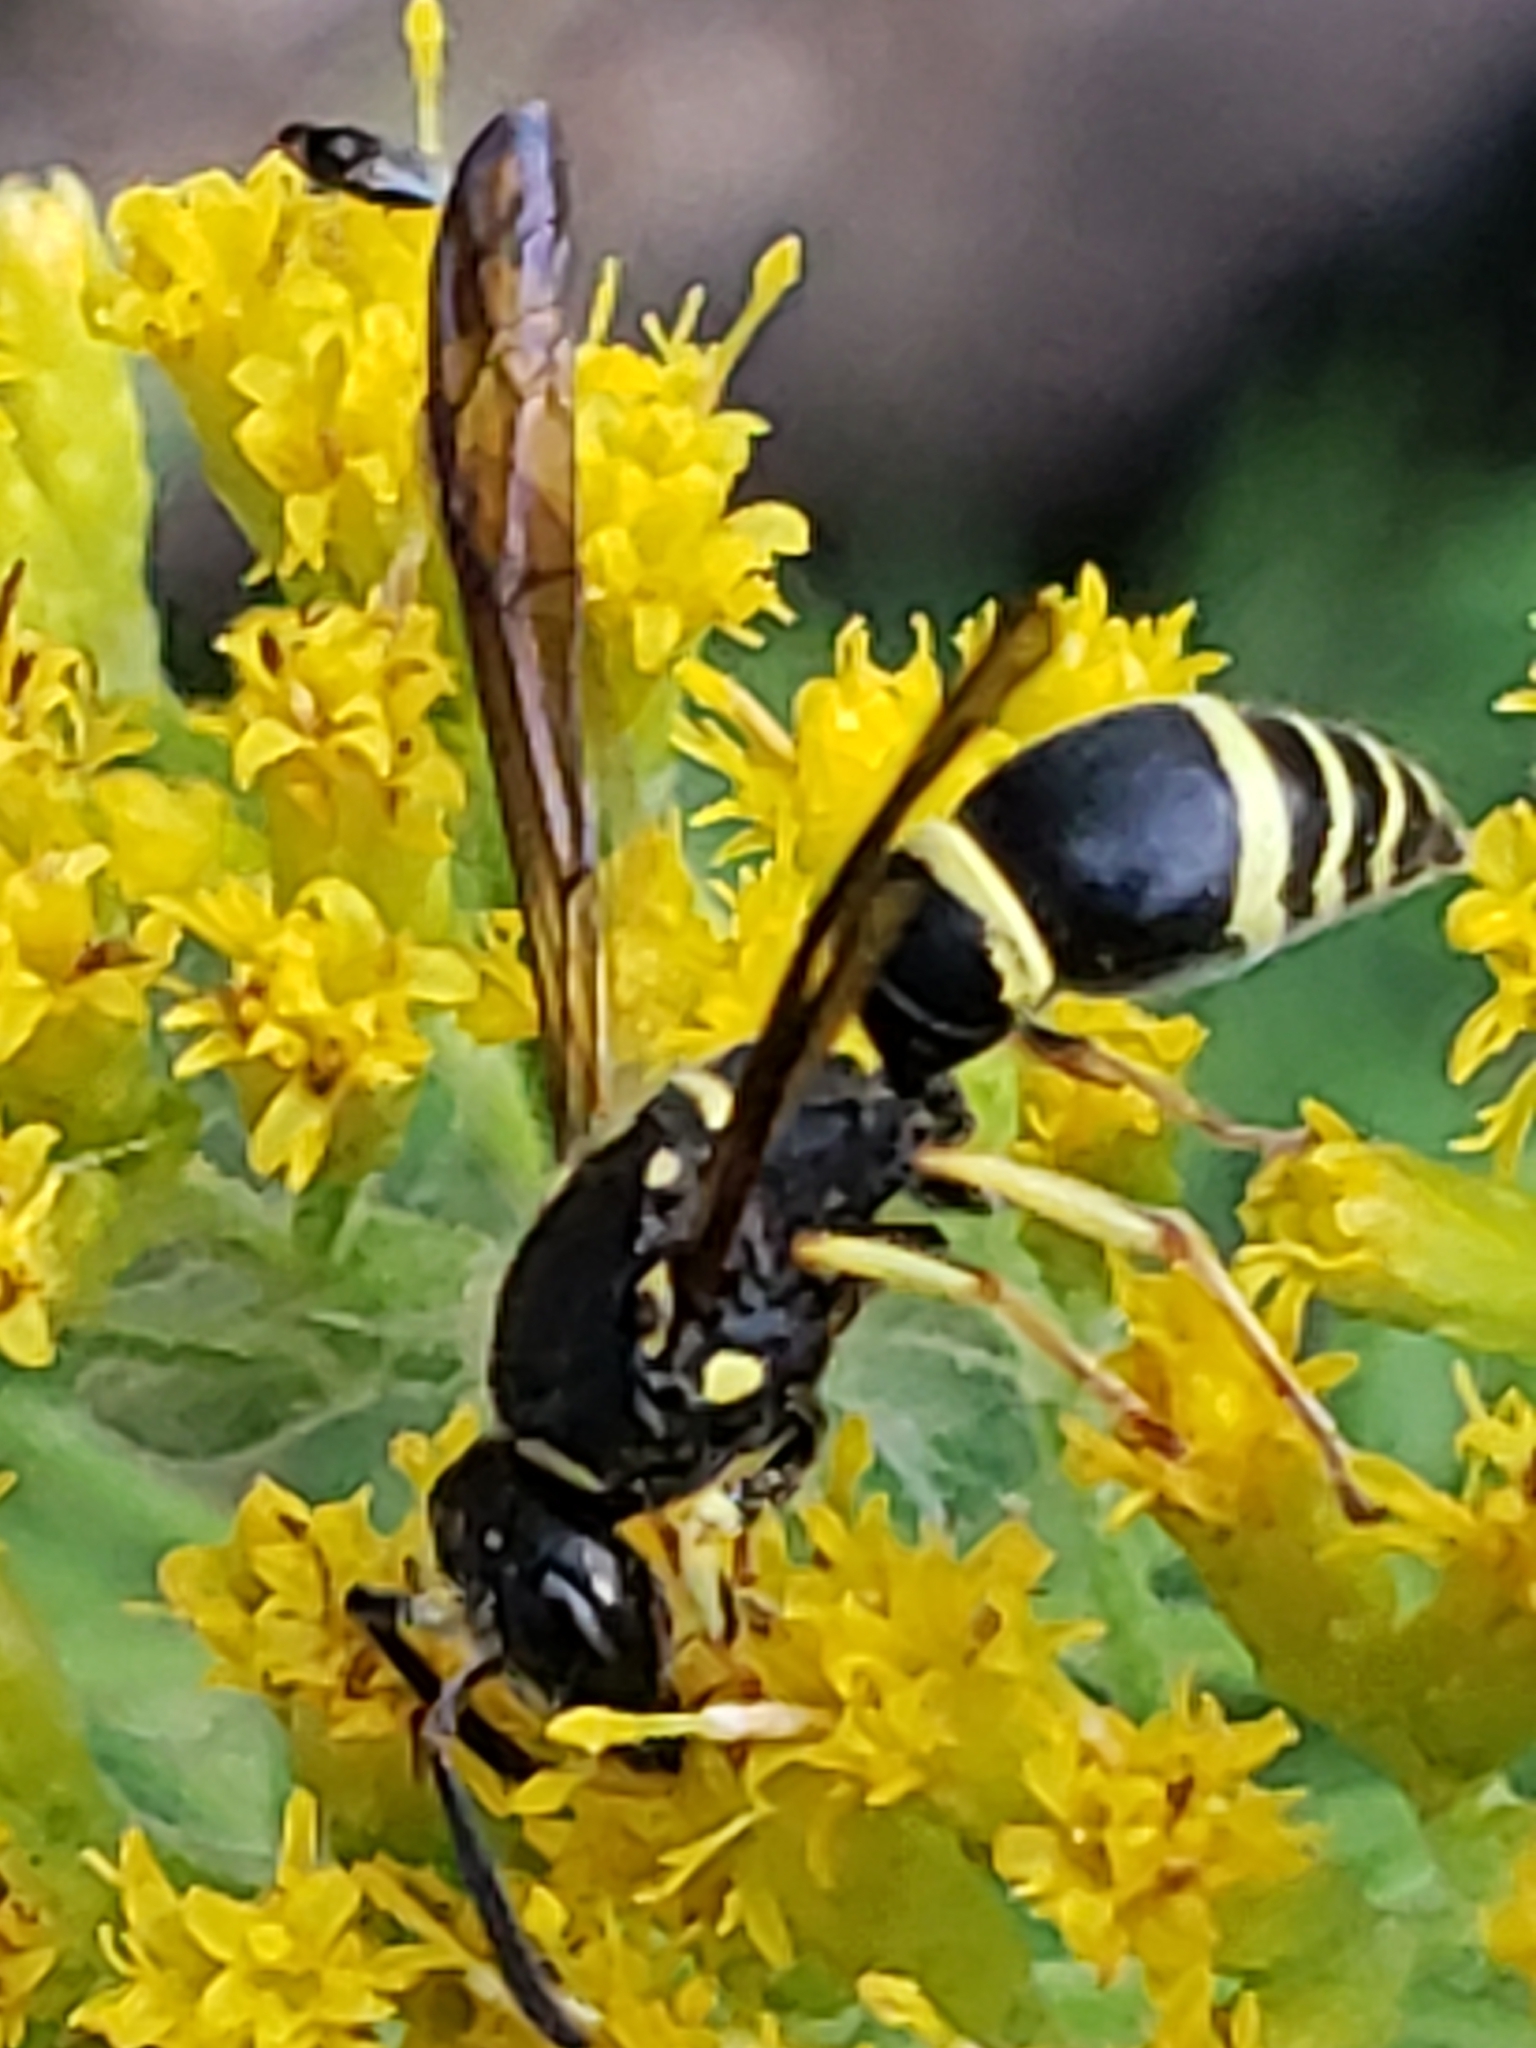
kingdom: Animalia
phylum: Arthropoda
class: Insecta
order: Hymenoptera
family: Vespidae
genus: Ancistrocerus
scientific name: Ancistrocerus adiabatus
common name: Bramble mason wasp
